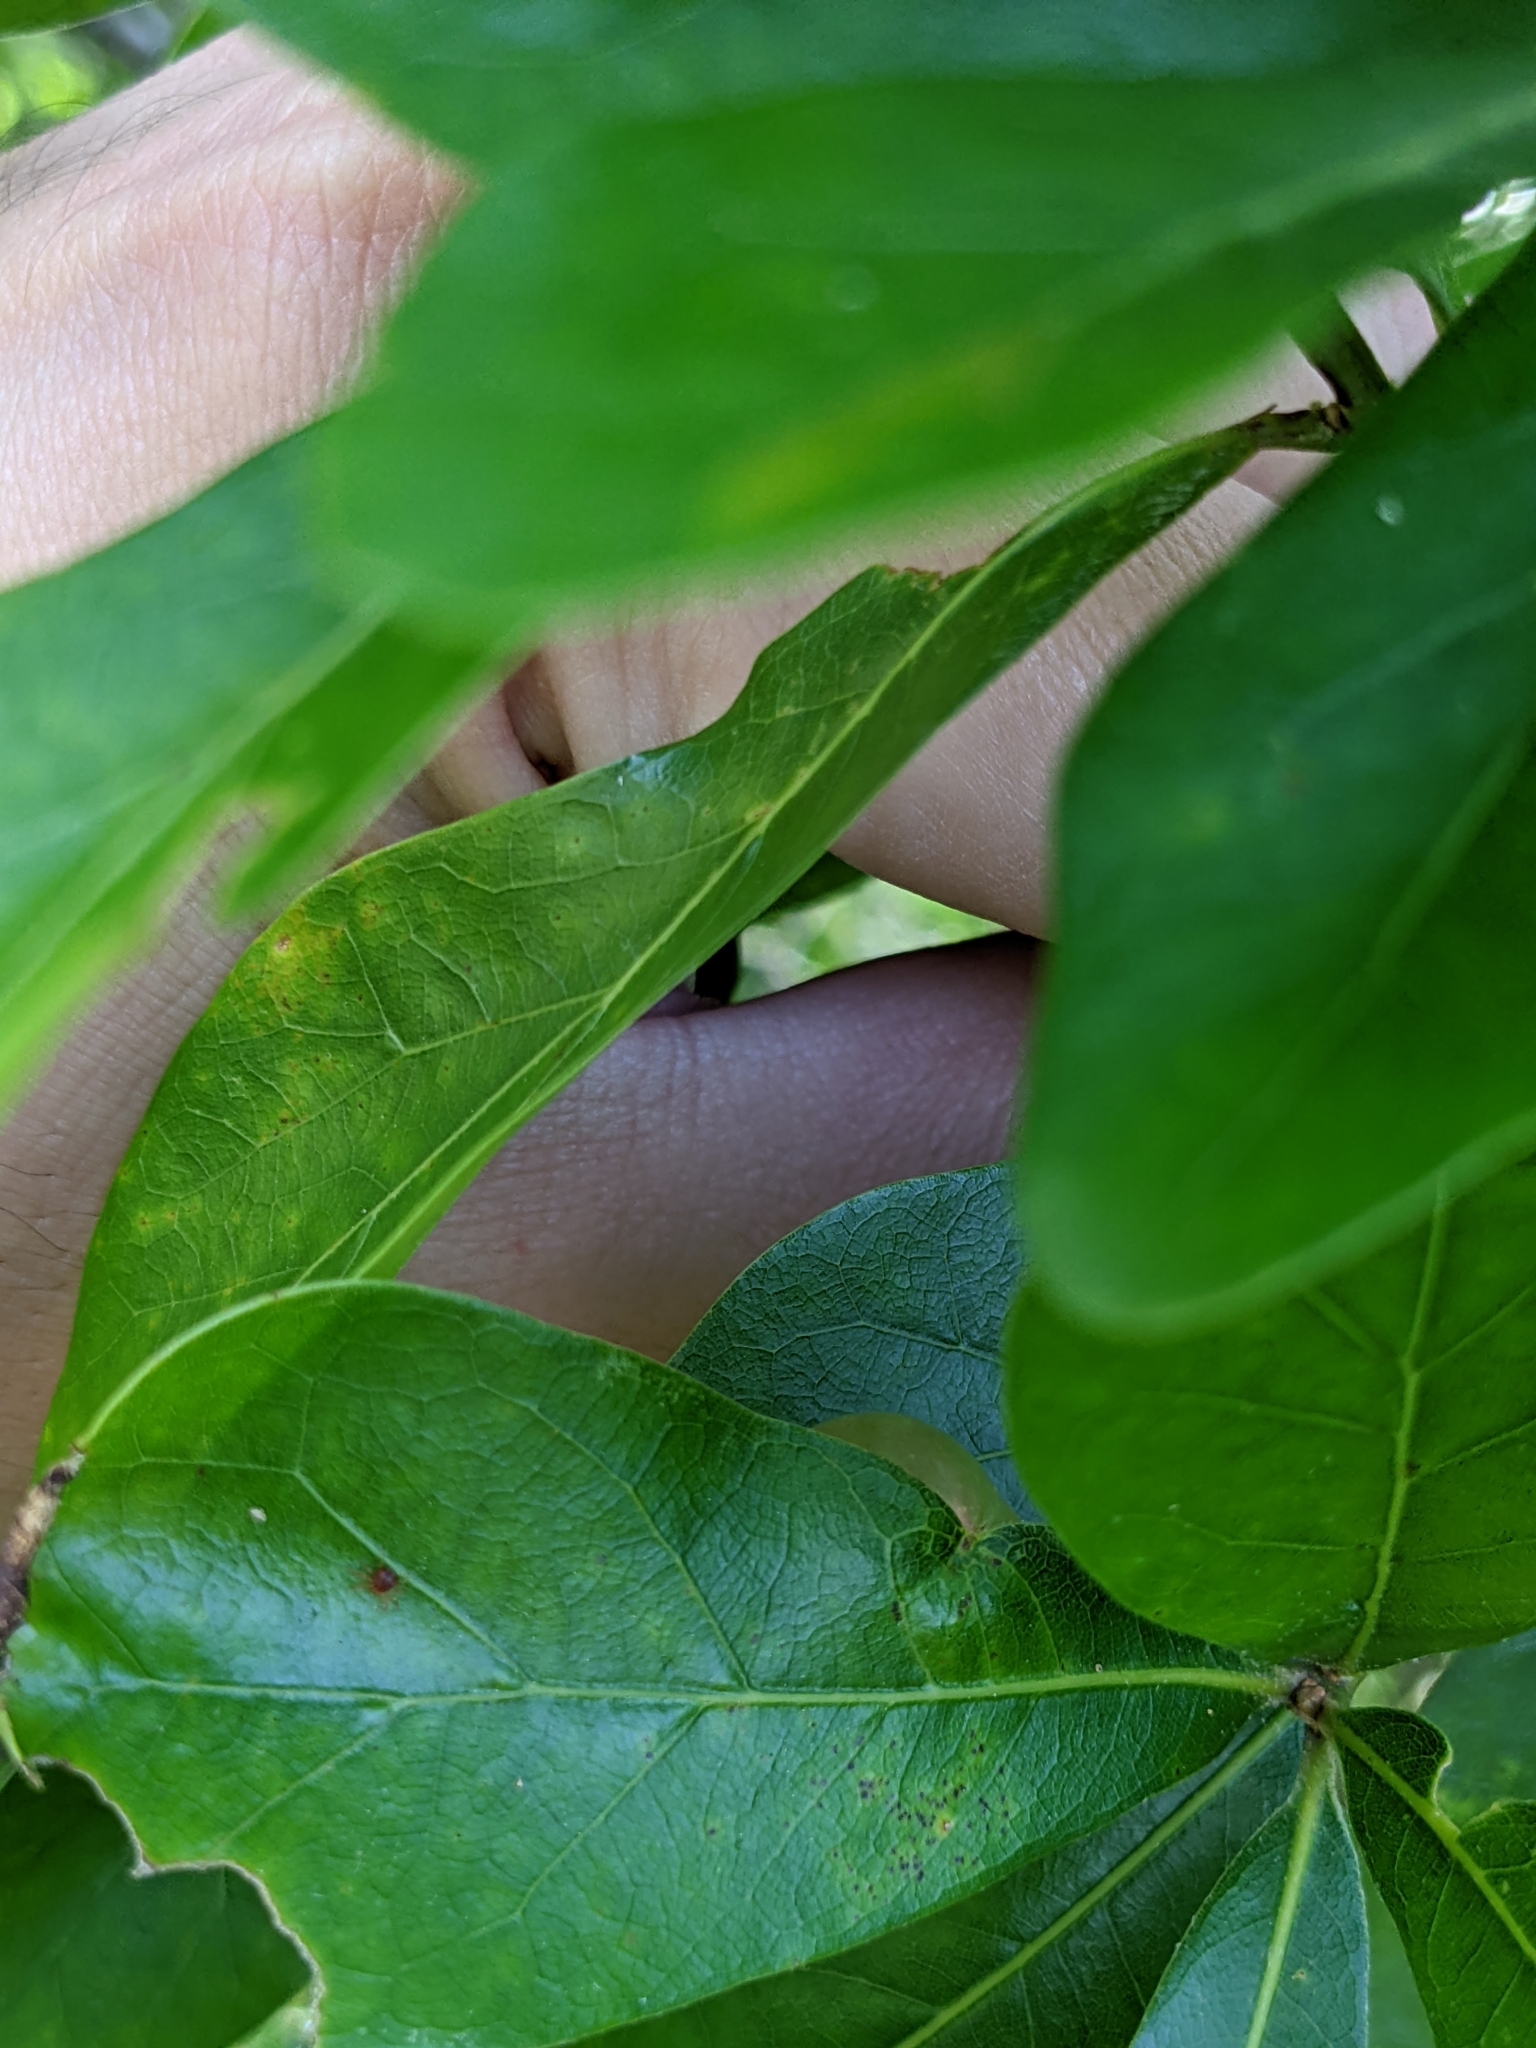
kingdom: Animalia
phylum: Arthropoda
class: Insecta
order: Hymenoptera
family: Cynipidae
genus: Amphibolips
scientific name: Amphibolips
